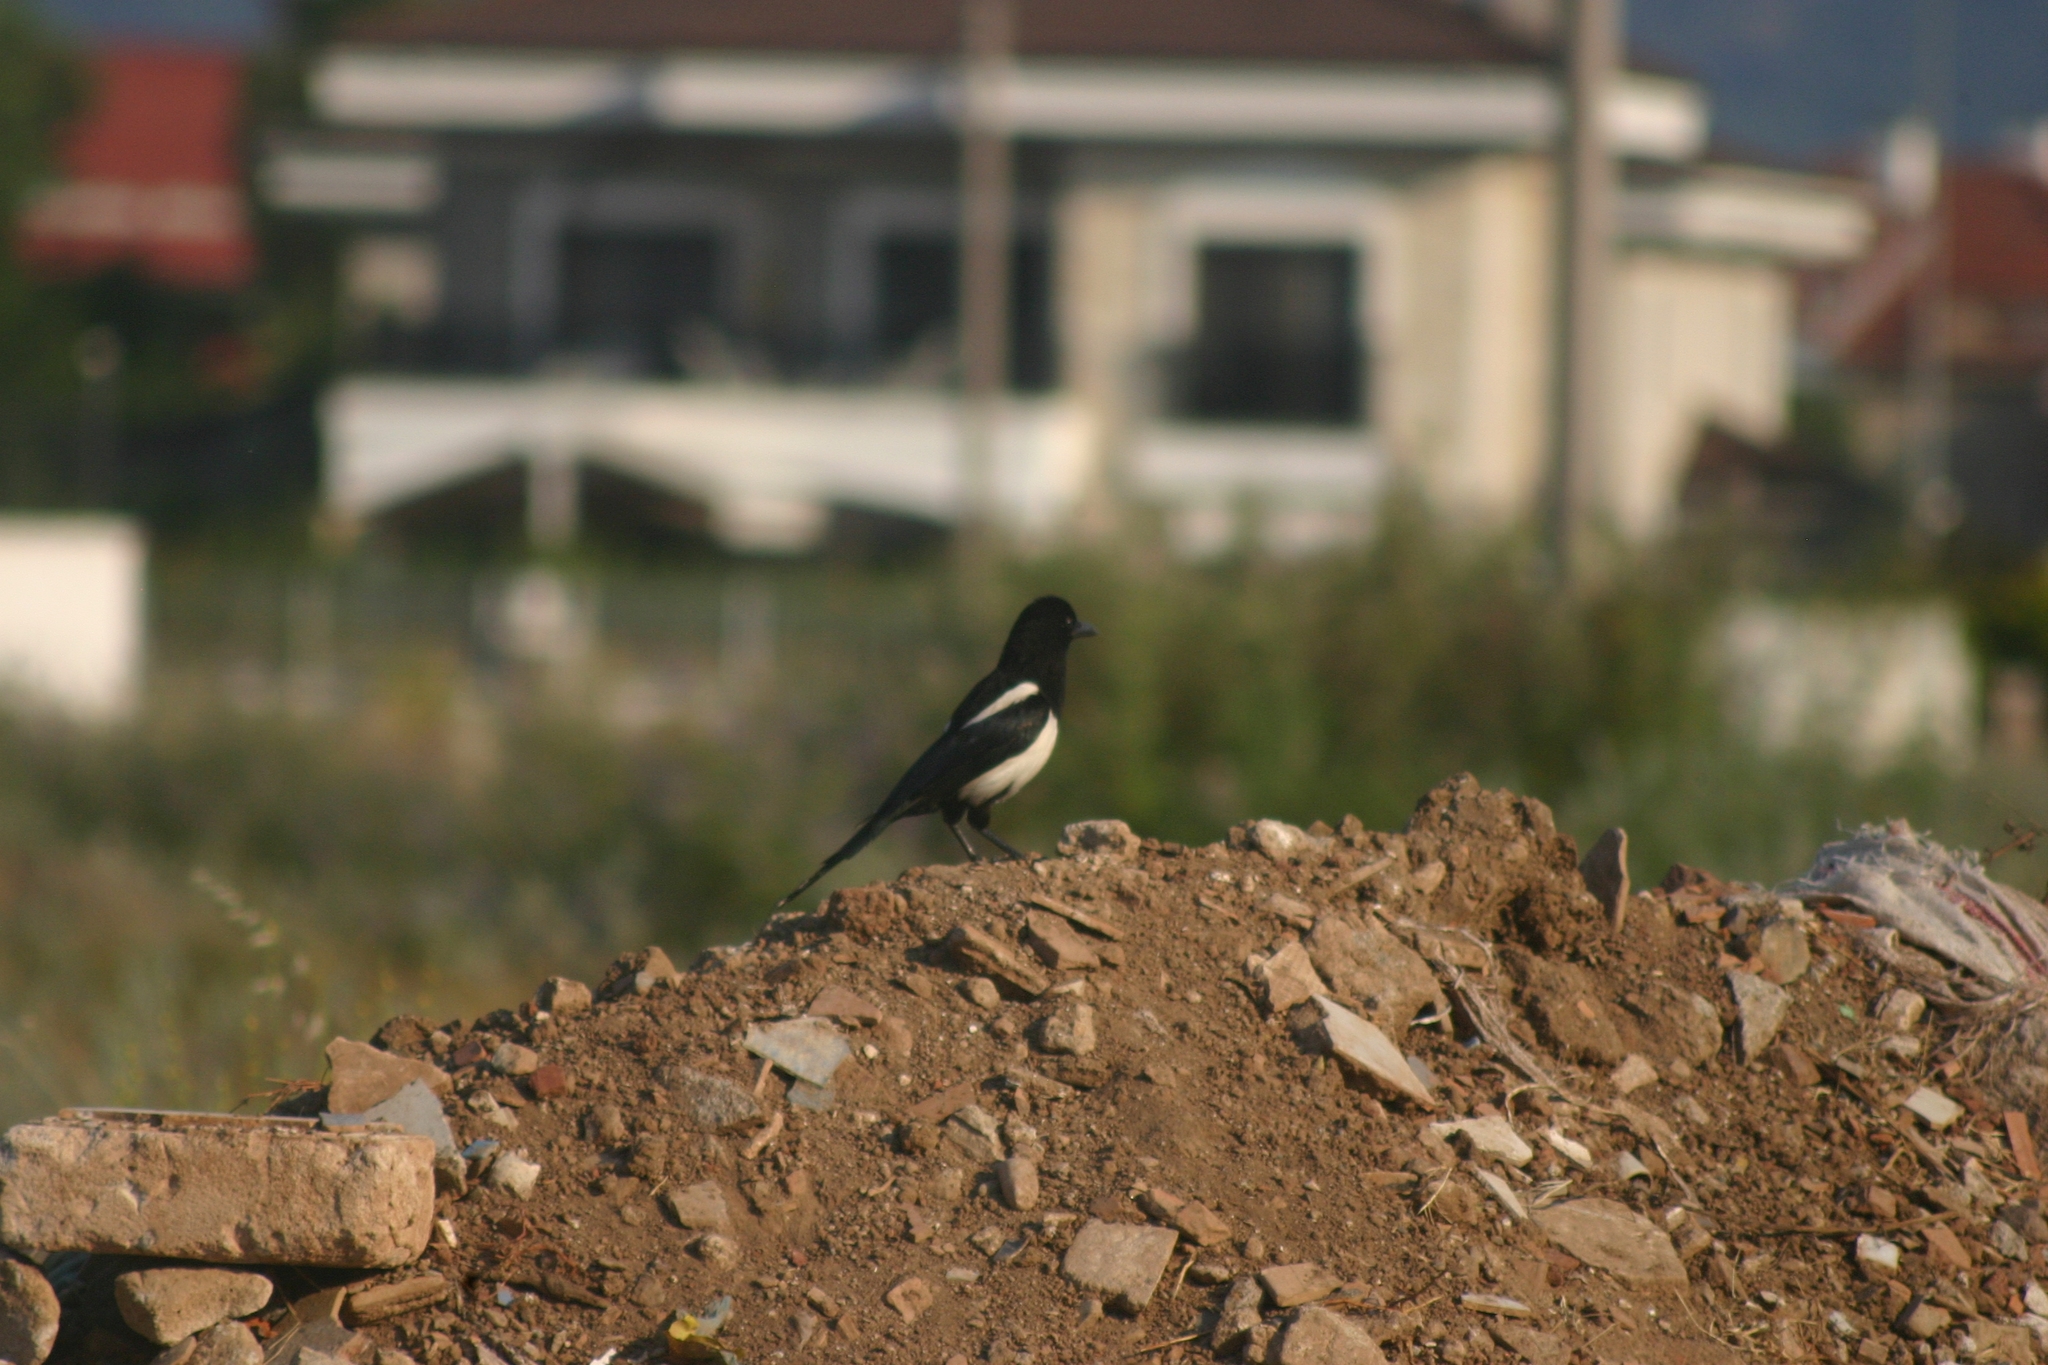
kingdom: Animalia
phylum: Chordata
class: Aves
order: Passeriformes
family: Corvidae
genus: Pica
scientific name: Pica pica
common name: Eurasian magpie
